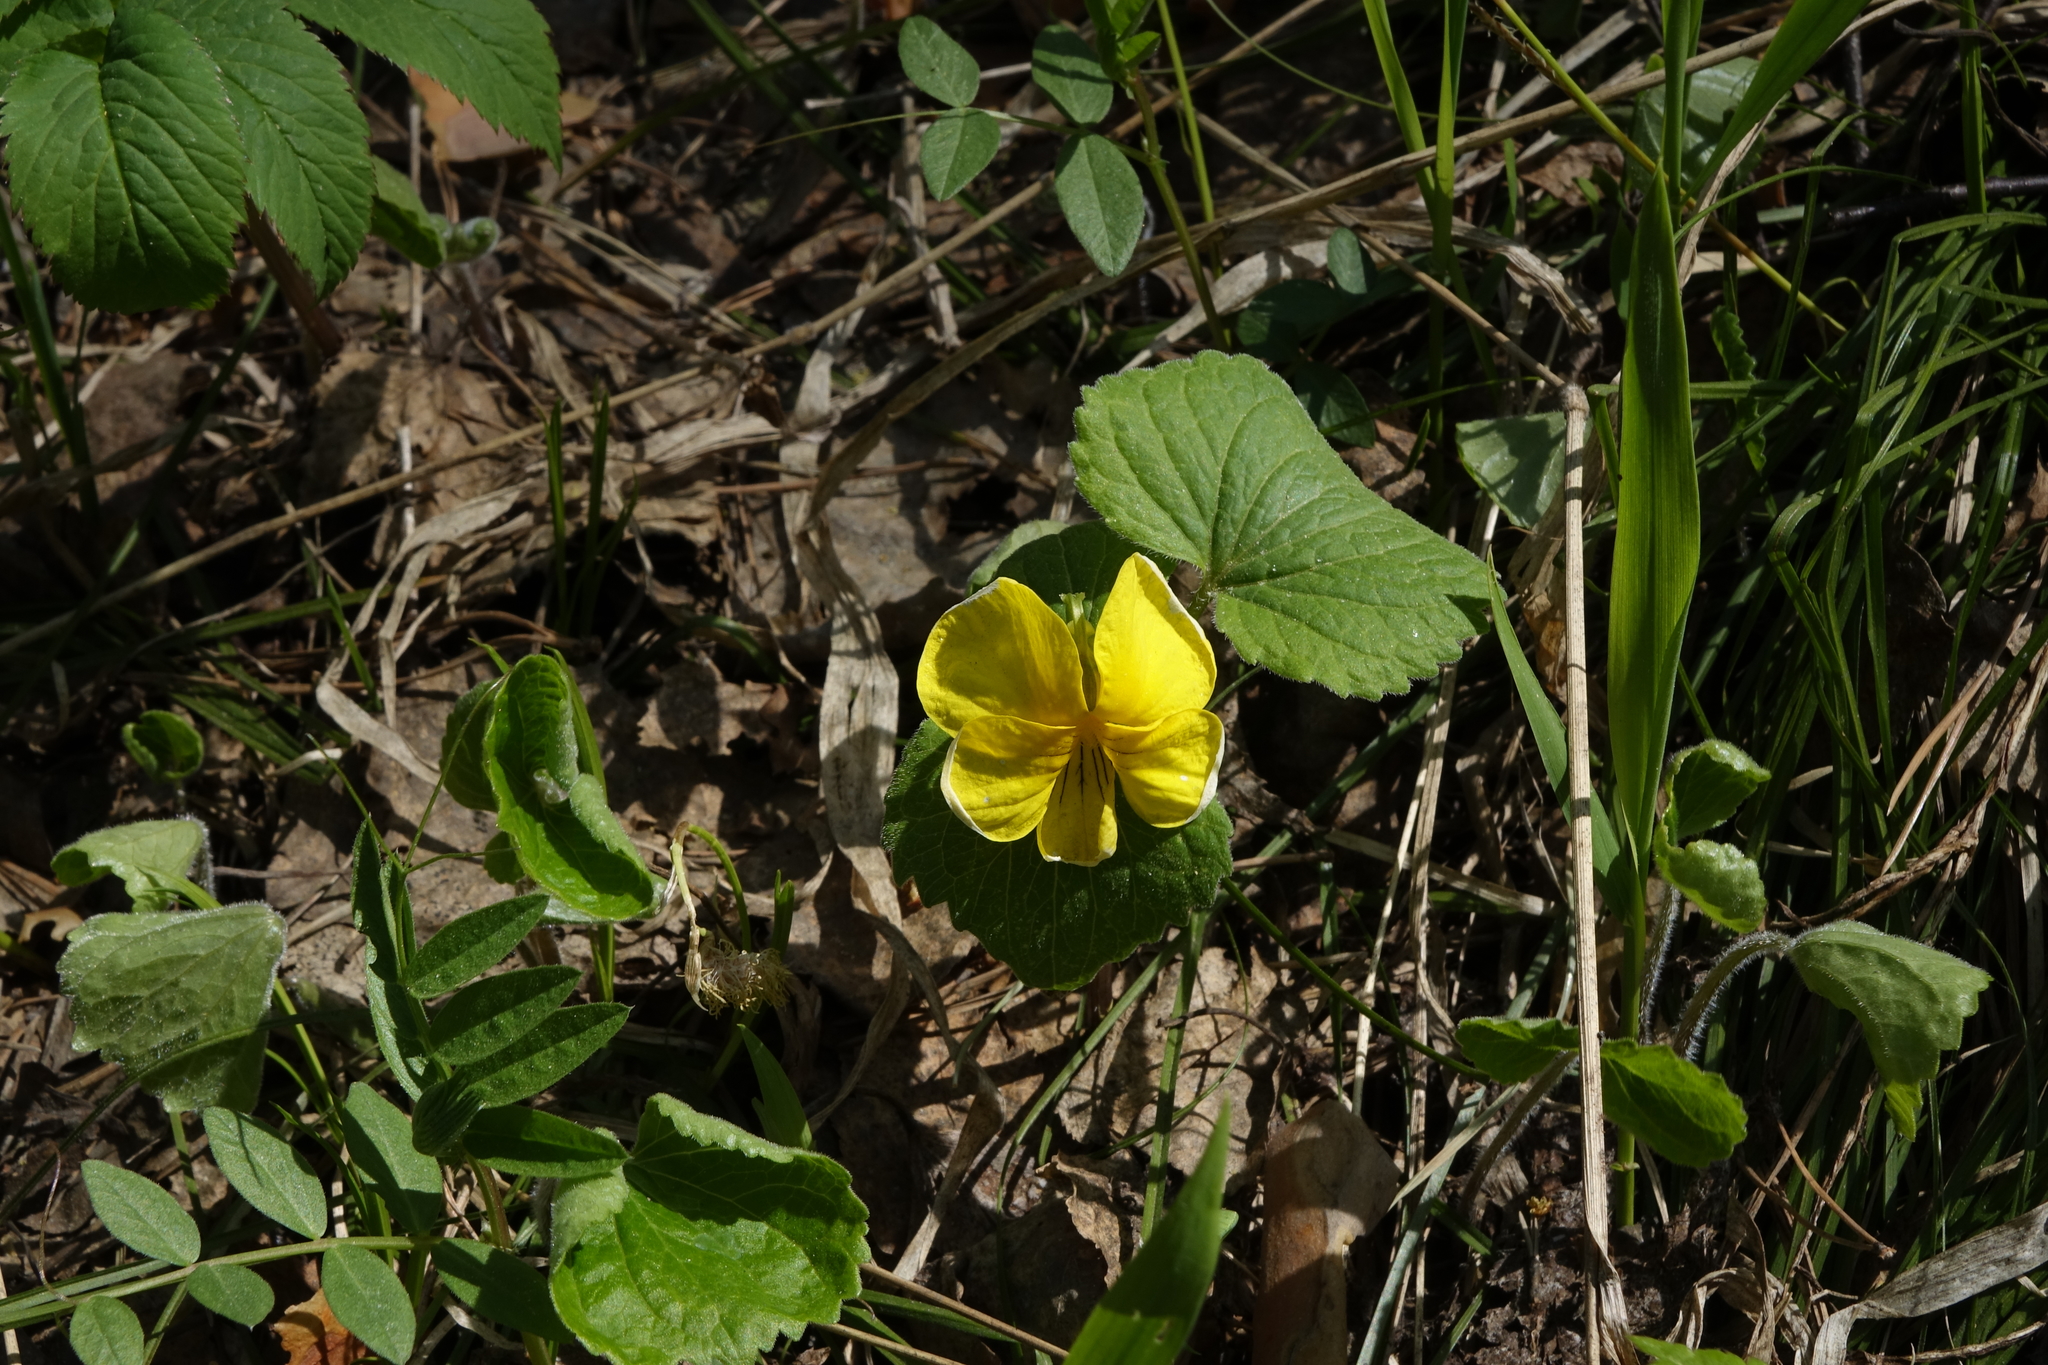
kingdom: Plantae
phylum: Tracheophyta
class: Magnoliopsida
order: Malpighiales
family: Violaceae
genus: Viola
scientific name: Viola uniflora
